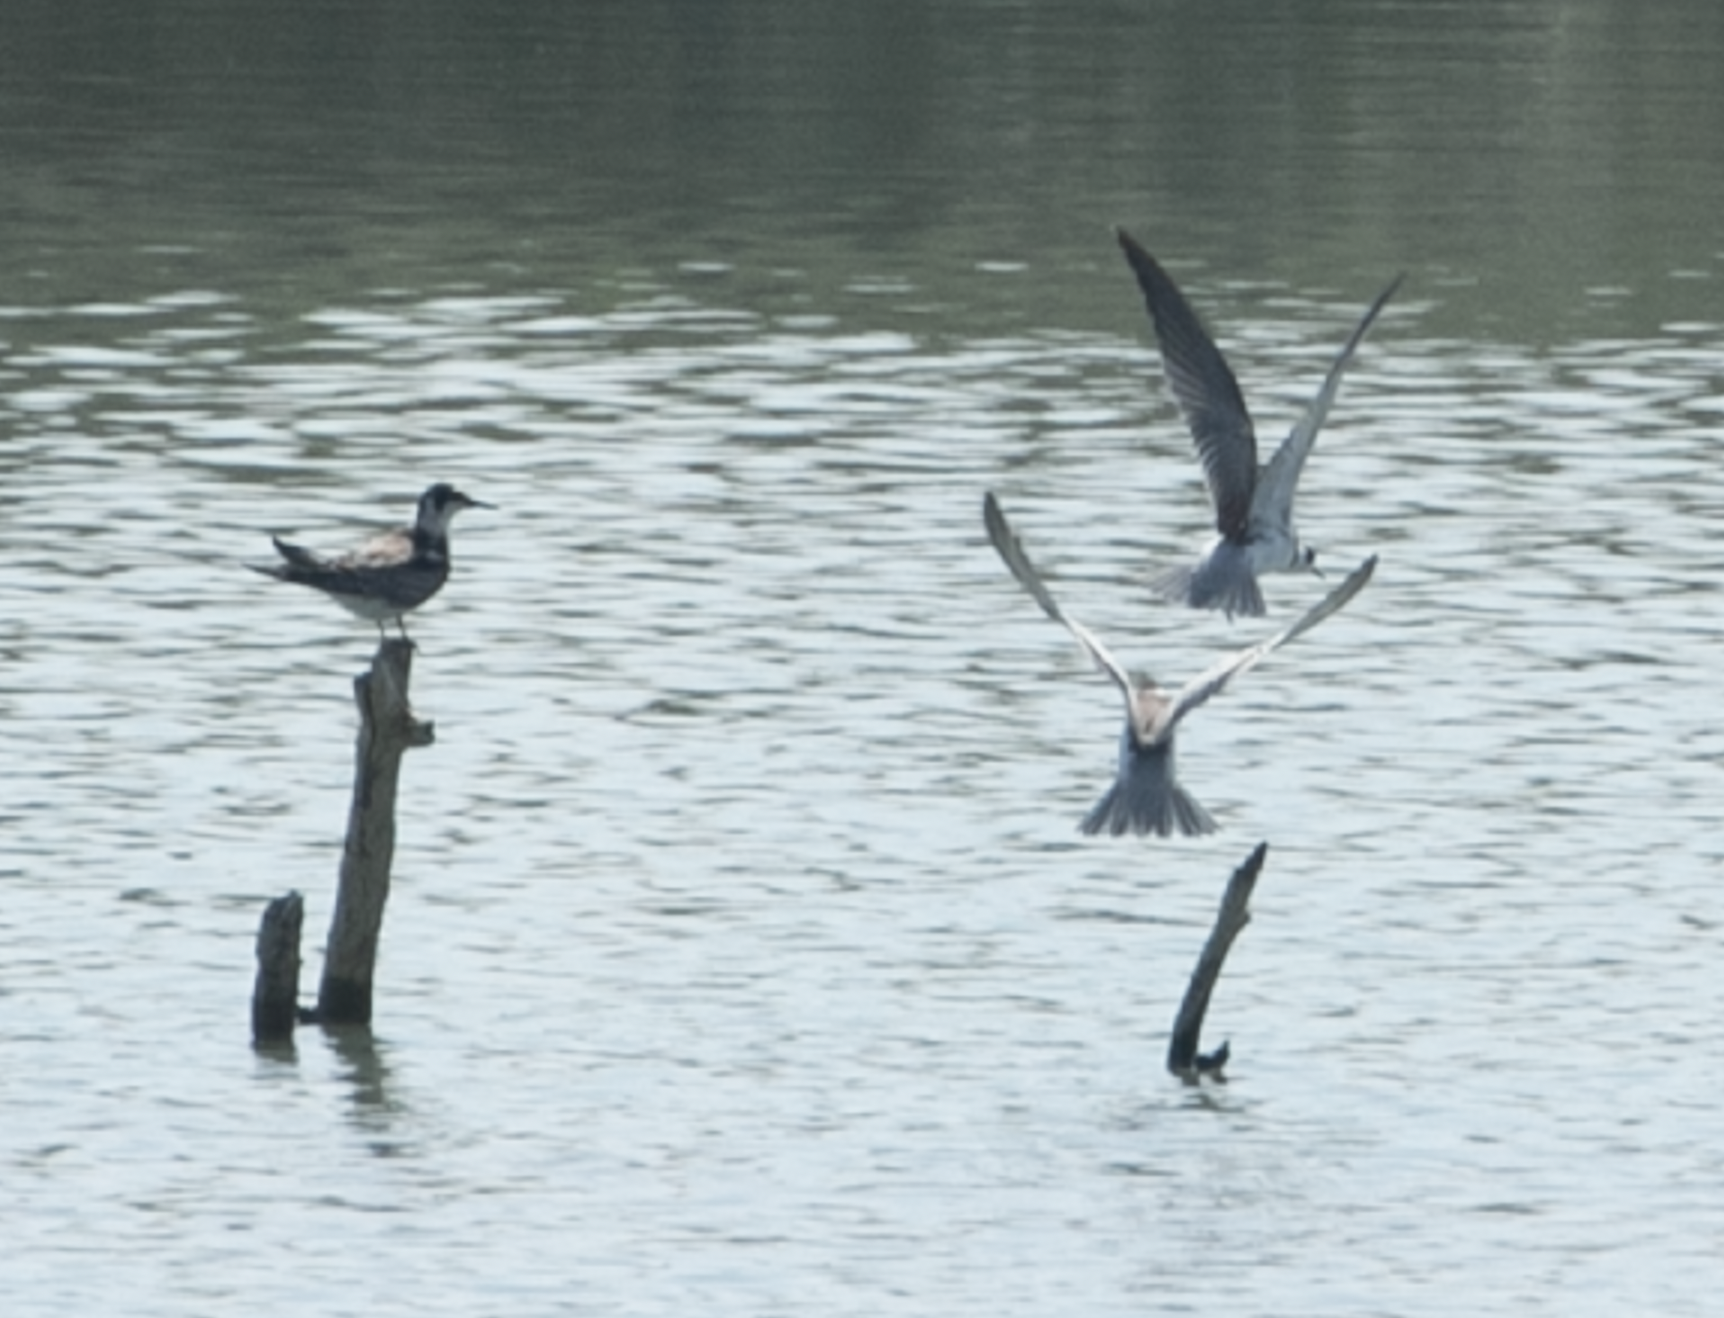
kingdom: Animalia
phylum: Chordata
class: Aves
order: Charadriiformes
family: Laridae
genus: Chlidonias
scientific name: Chlidonias niger
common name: Black tern
